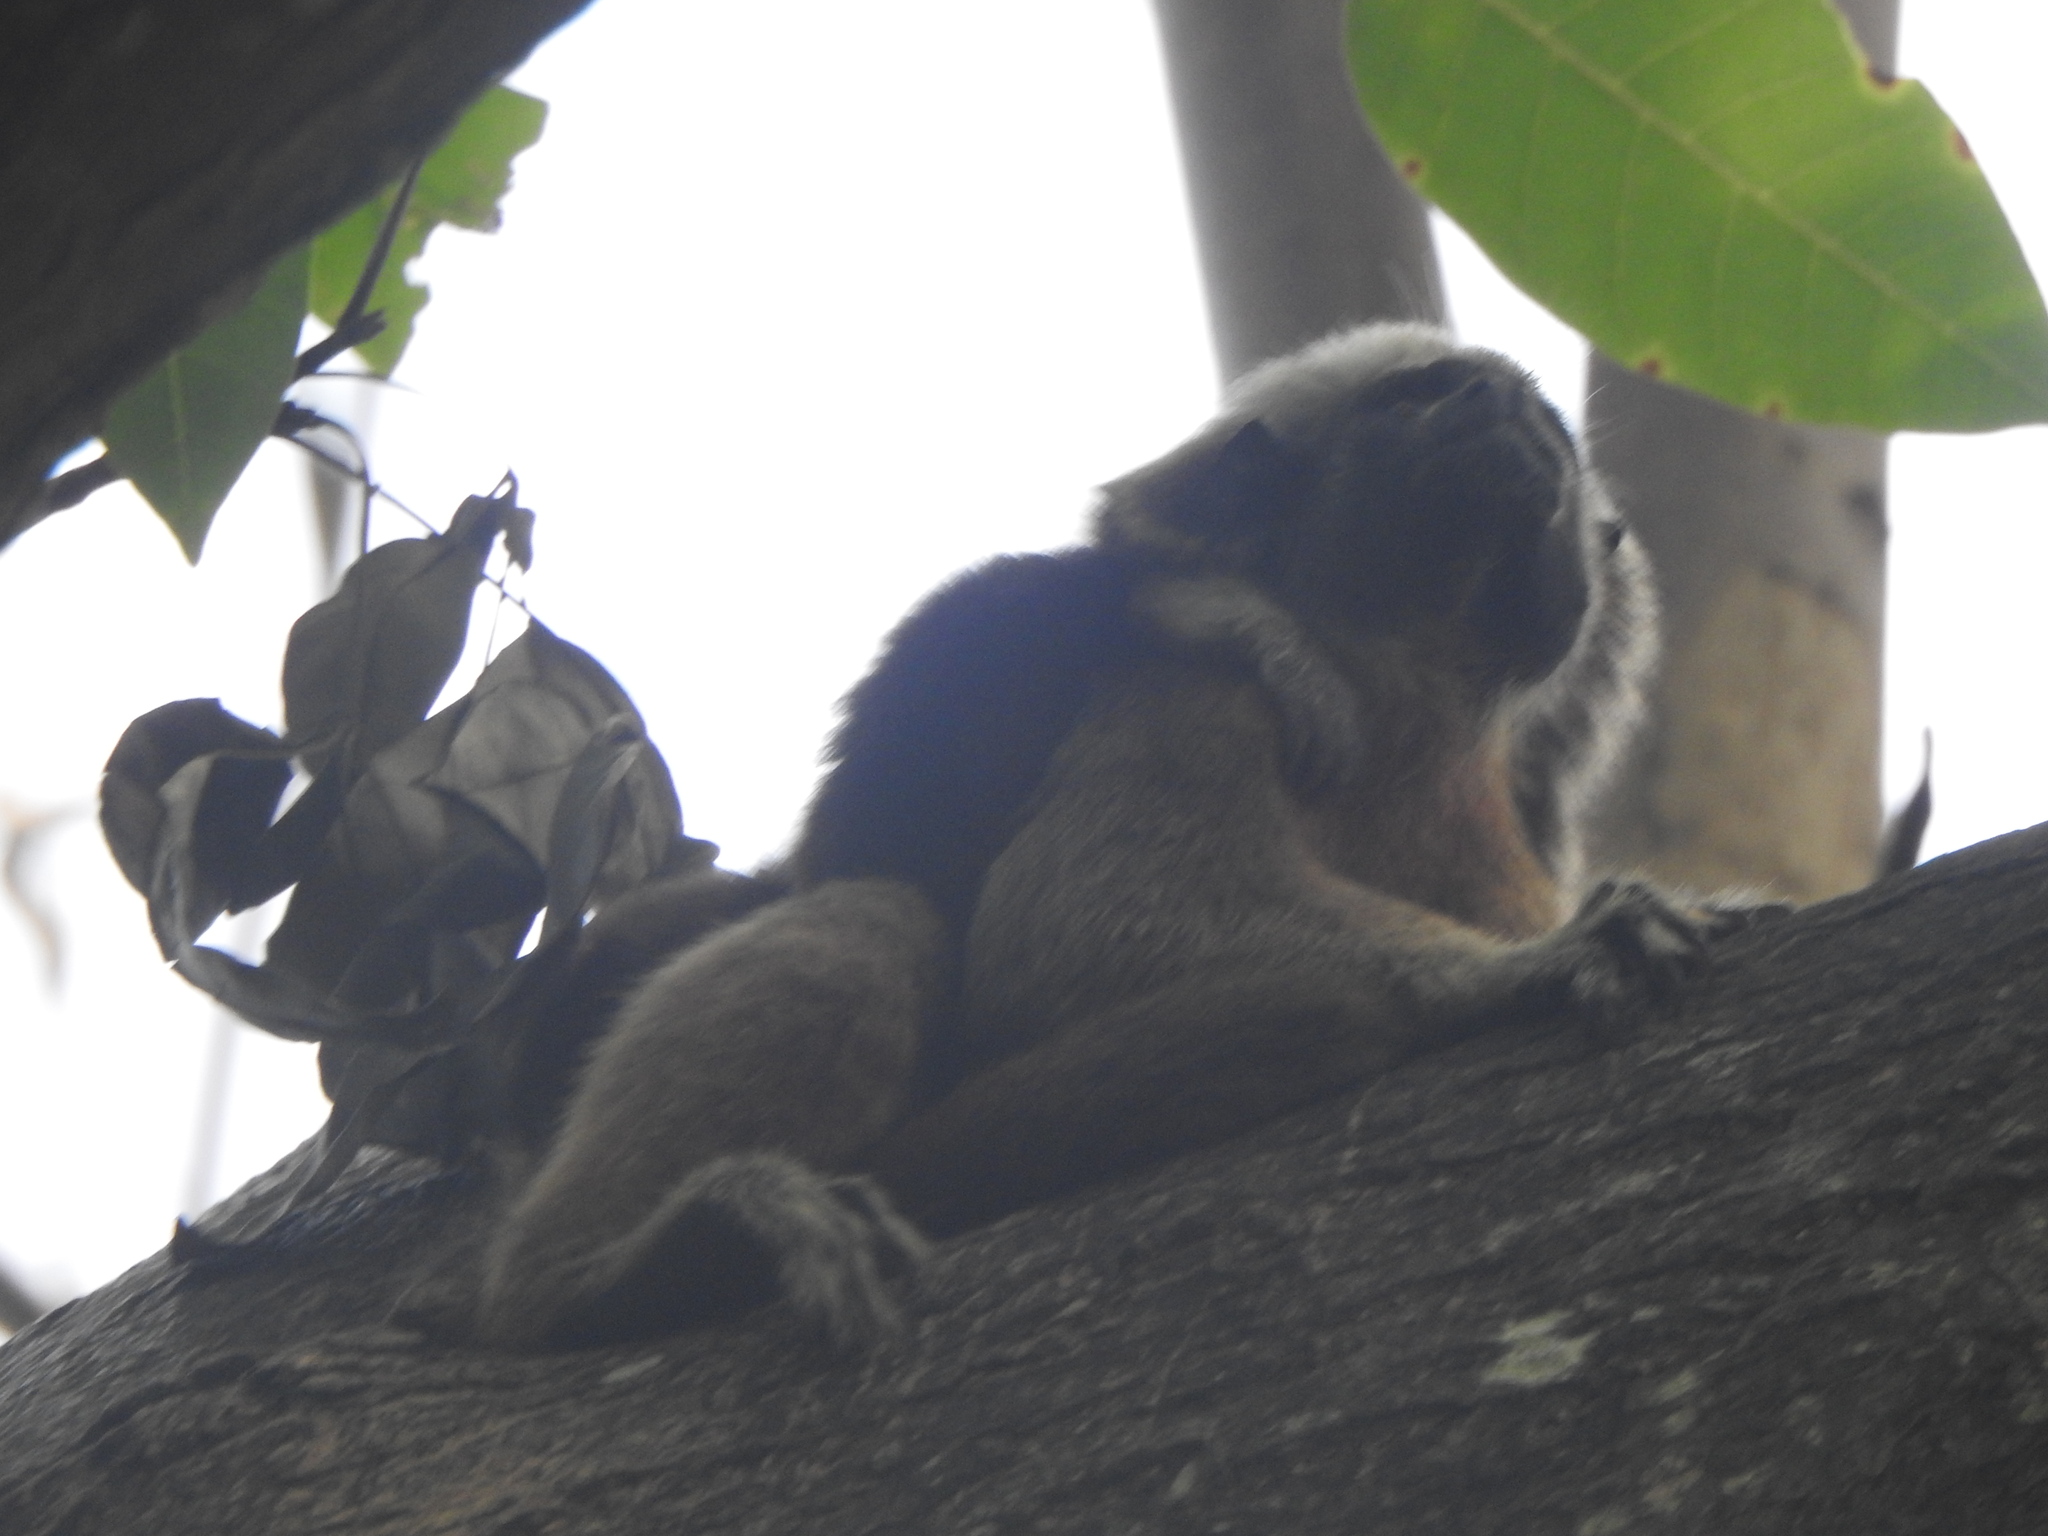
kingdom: Animalia
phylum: Chordata
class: Mammalia
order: Primates
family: Callitrichidae
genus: Saguinus
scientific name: Saguinus oedipus
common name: Cottontop tamarin
